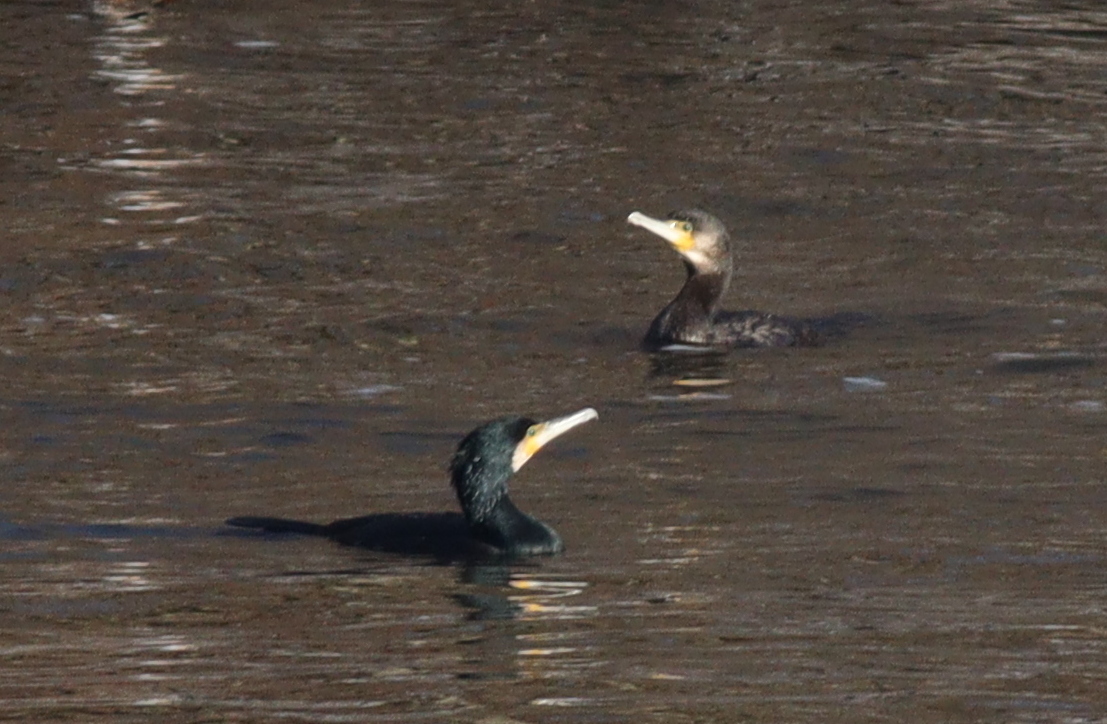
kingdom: Animalia
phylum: Chordata
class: Aves
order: Suliformes
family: Phalacrocoracidae
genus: Phalacrocorax
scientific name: Phalacrocorax carbo
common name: Great cormorant
